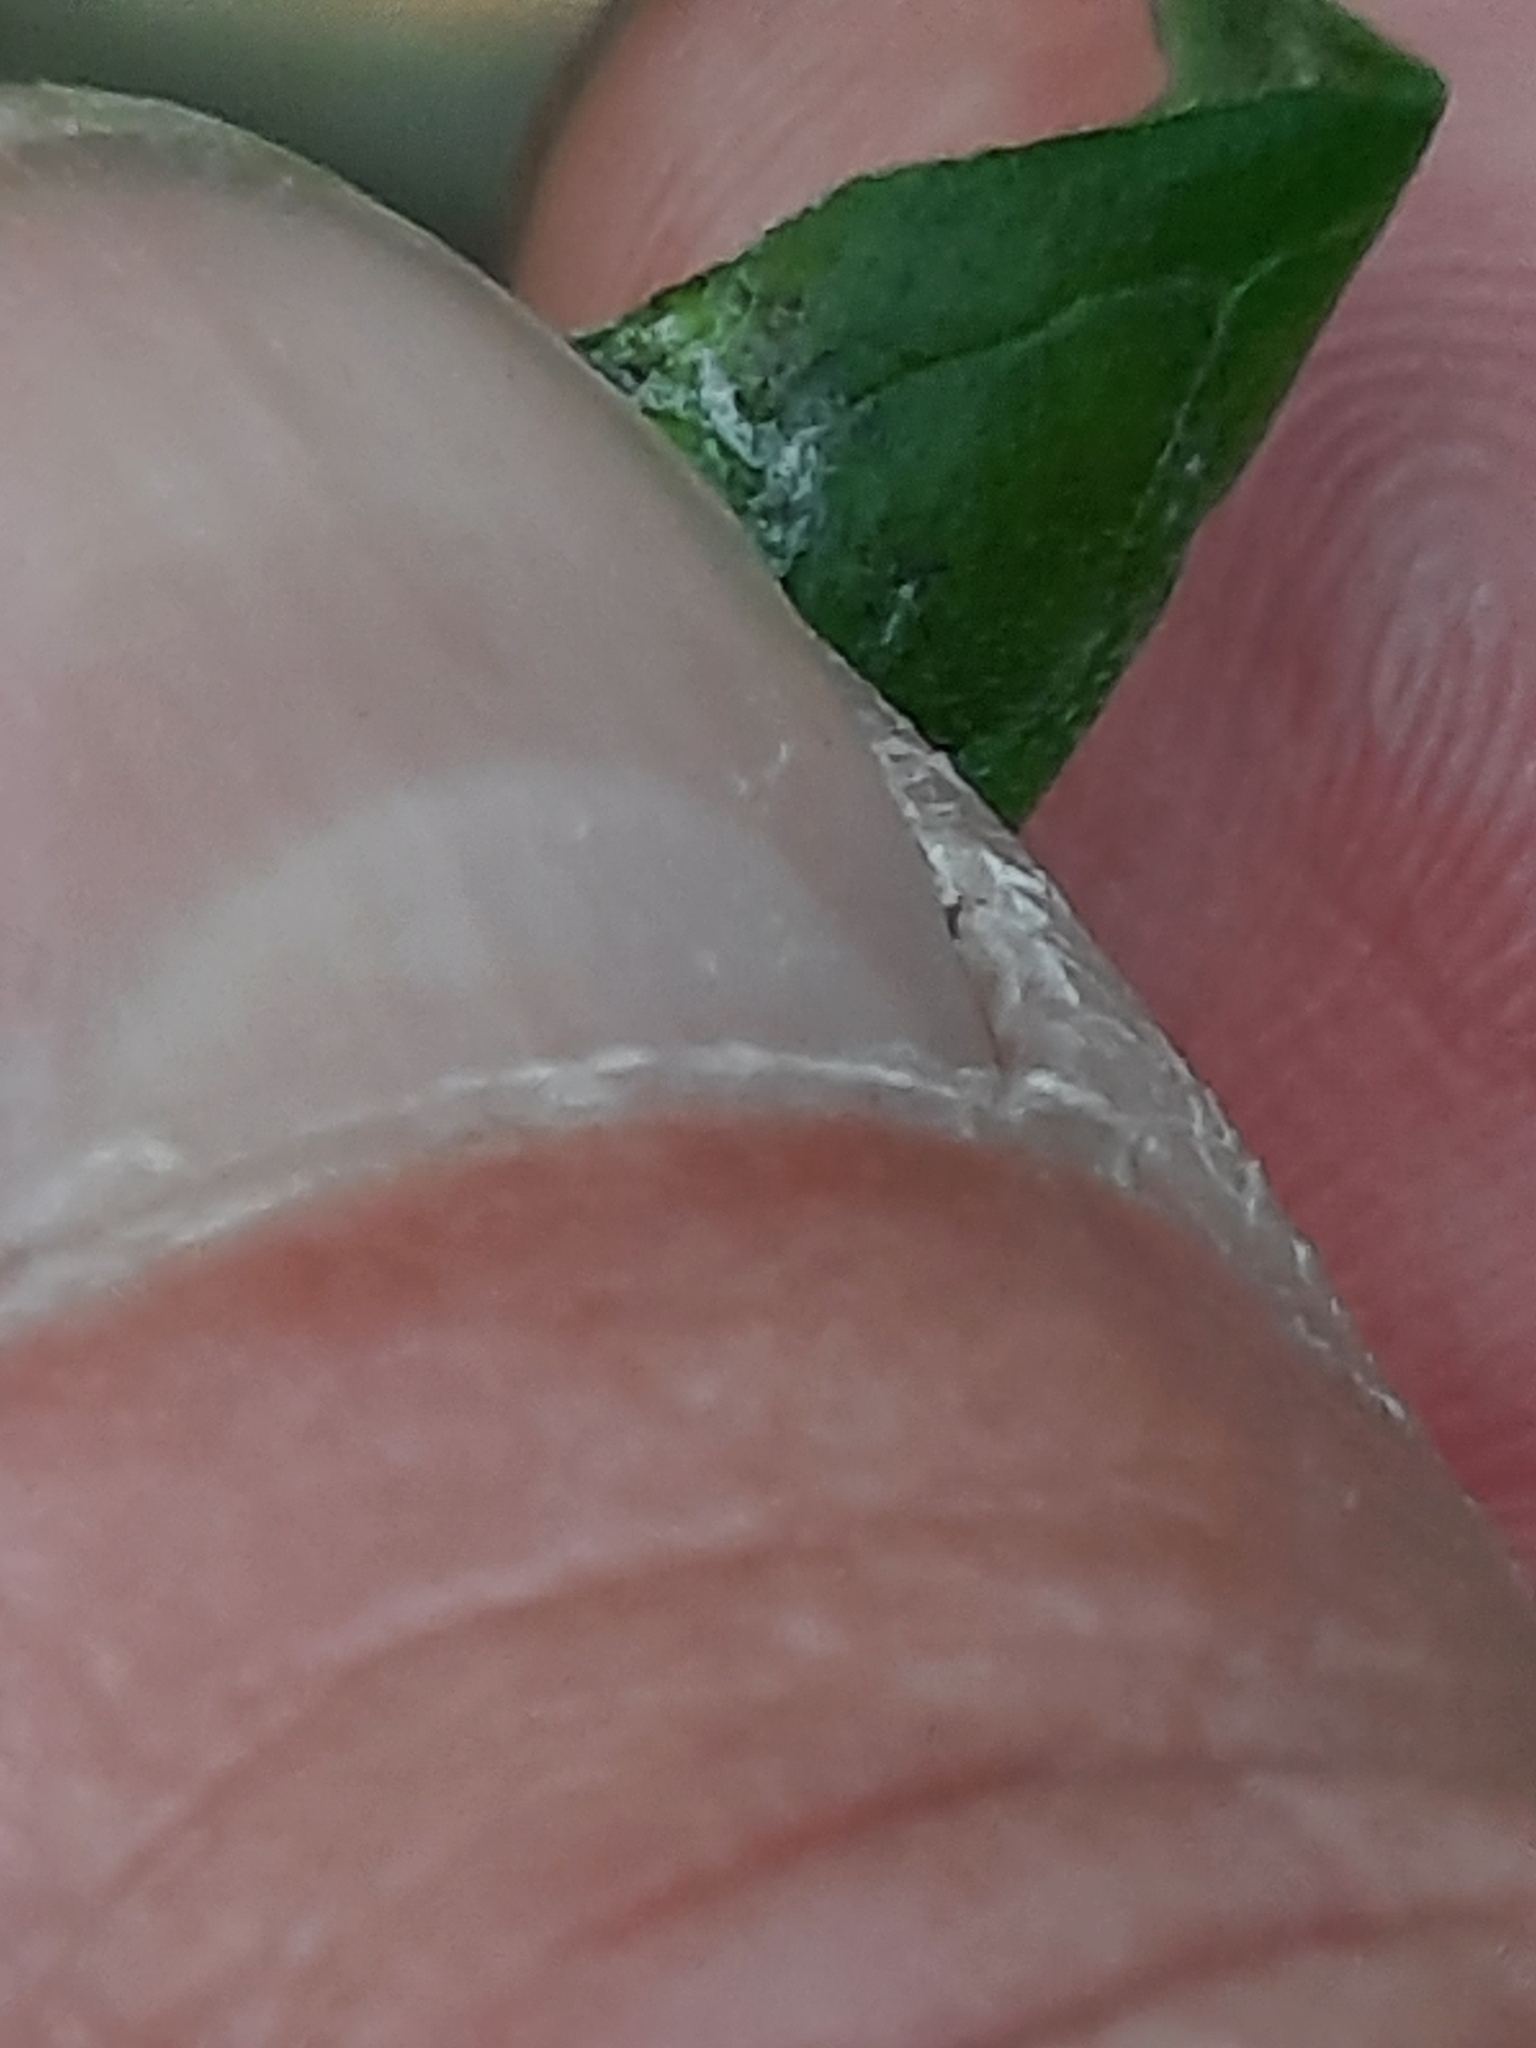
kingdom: Plantae
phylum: Tracheophyta
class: Magnoliopsida
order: Boraginales
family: Boraginaceae
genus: Hackelia
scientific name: Hackelia virginiana
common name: Beggar's-lice
